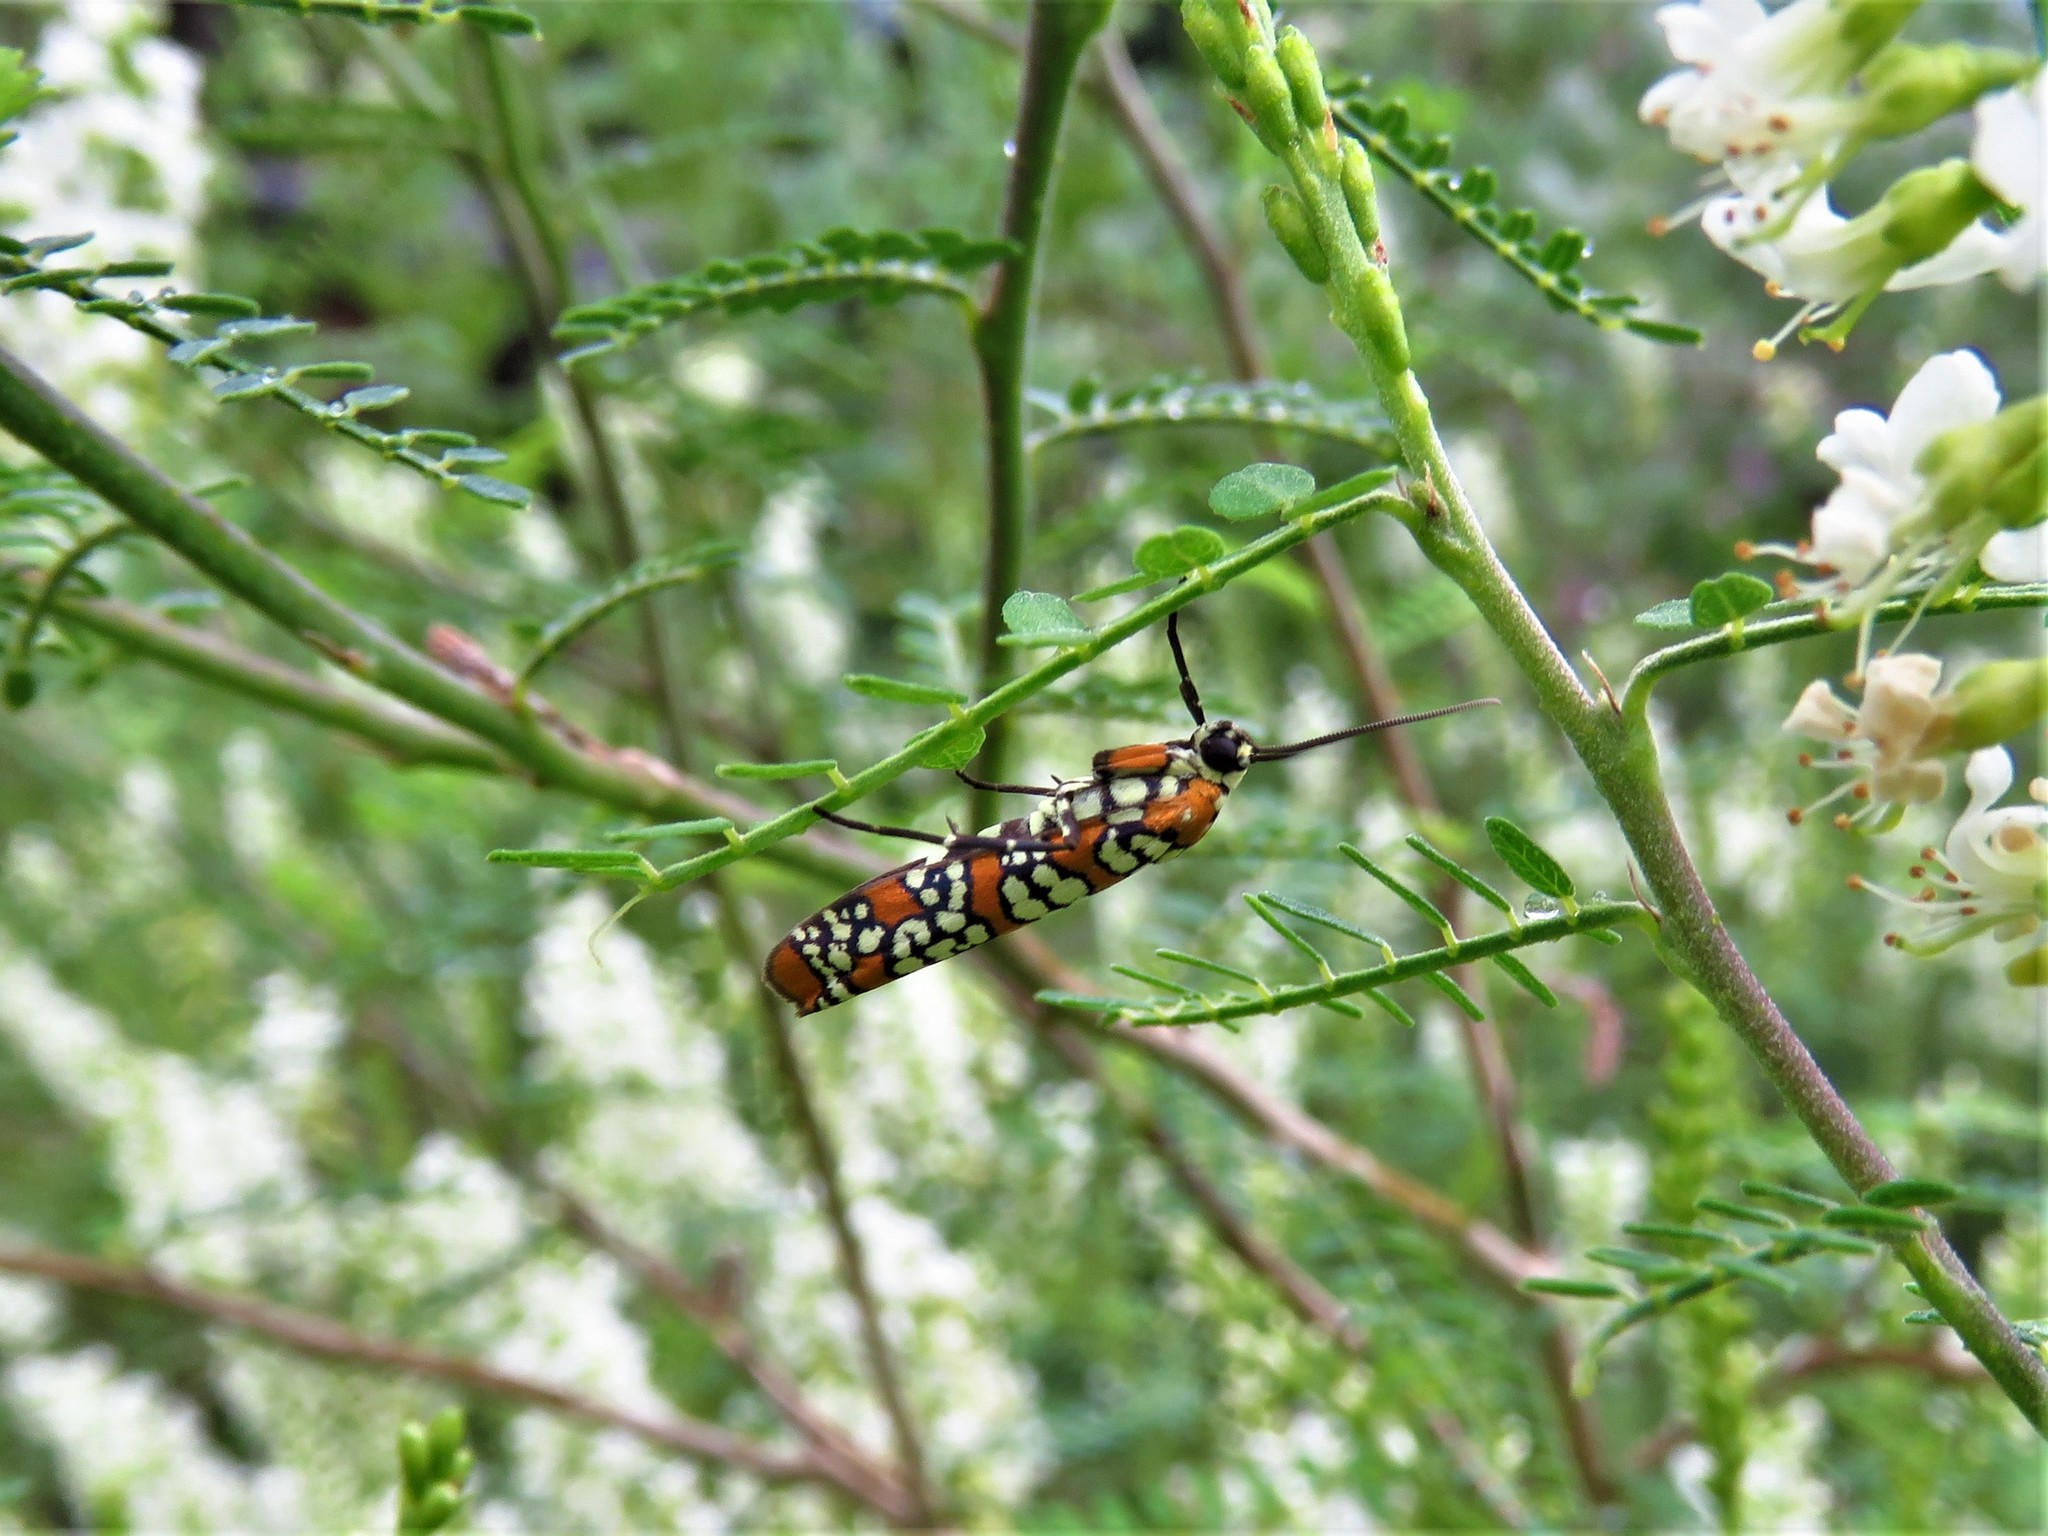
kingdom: Animalia
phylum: Arthropoda
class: Insecta
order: Lepidoptera
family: Attevidae
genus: Atteva
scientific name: Atteva punctella
